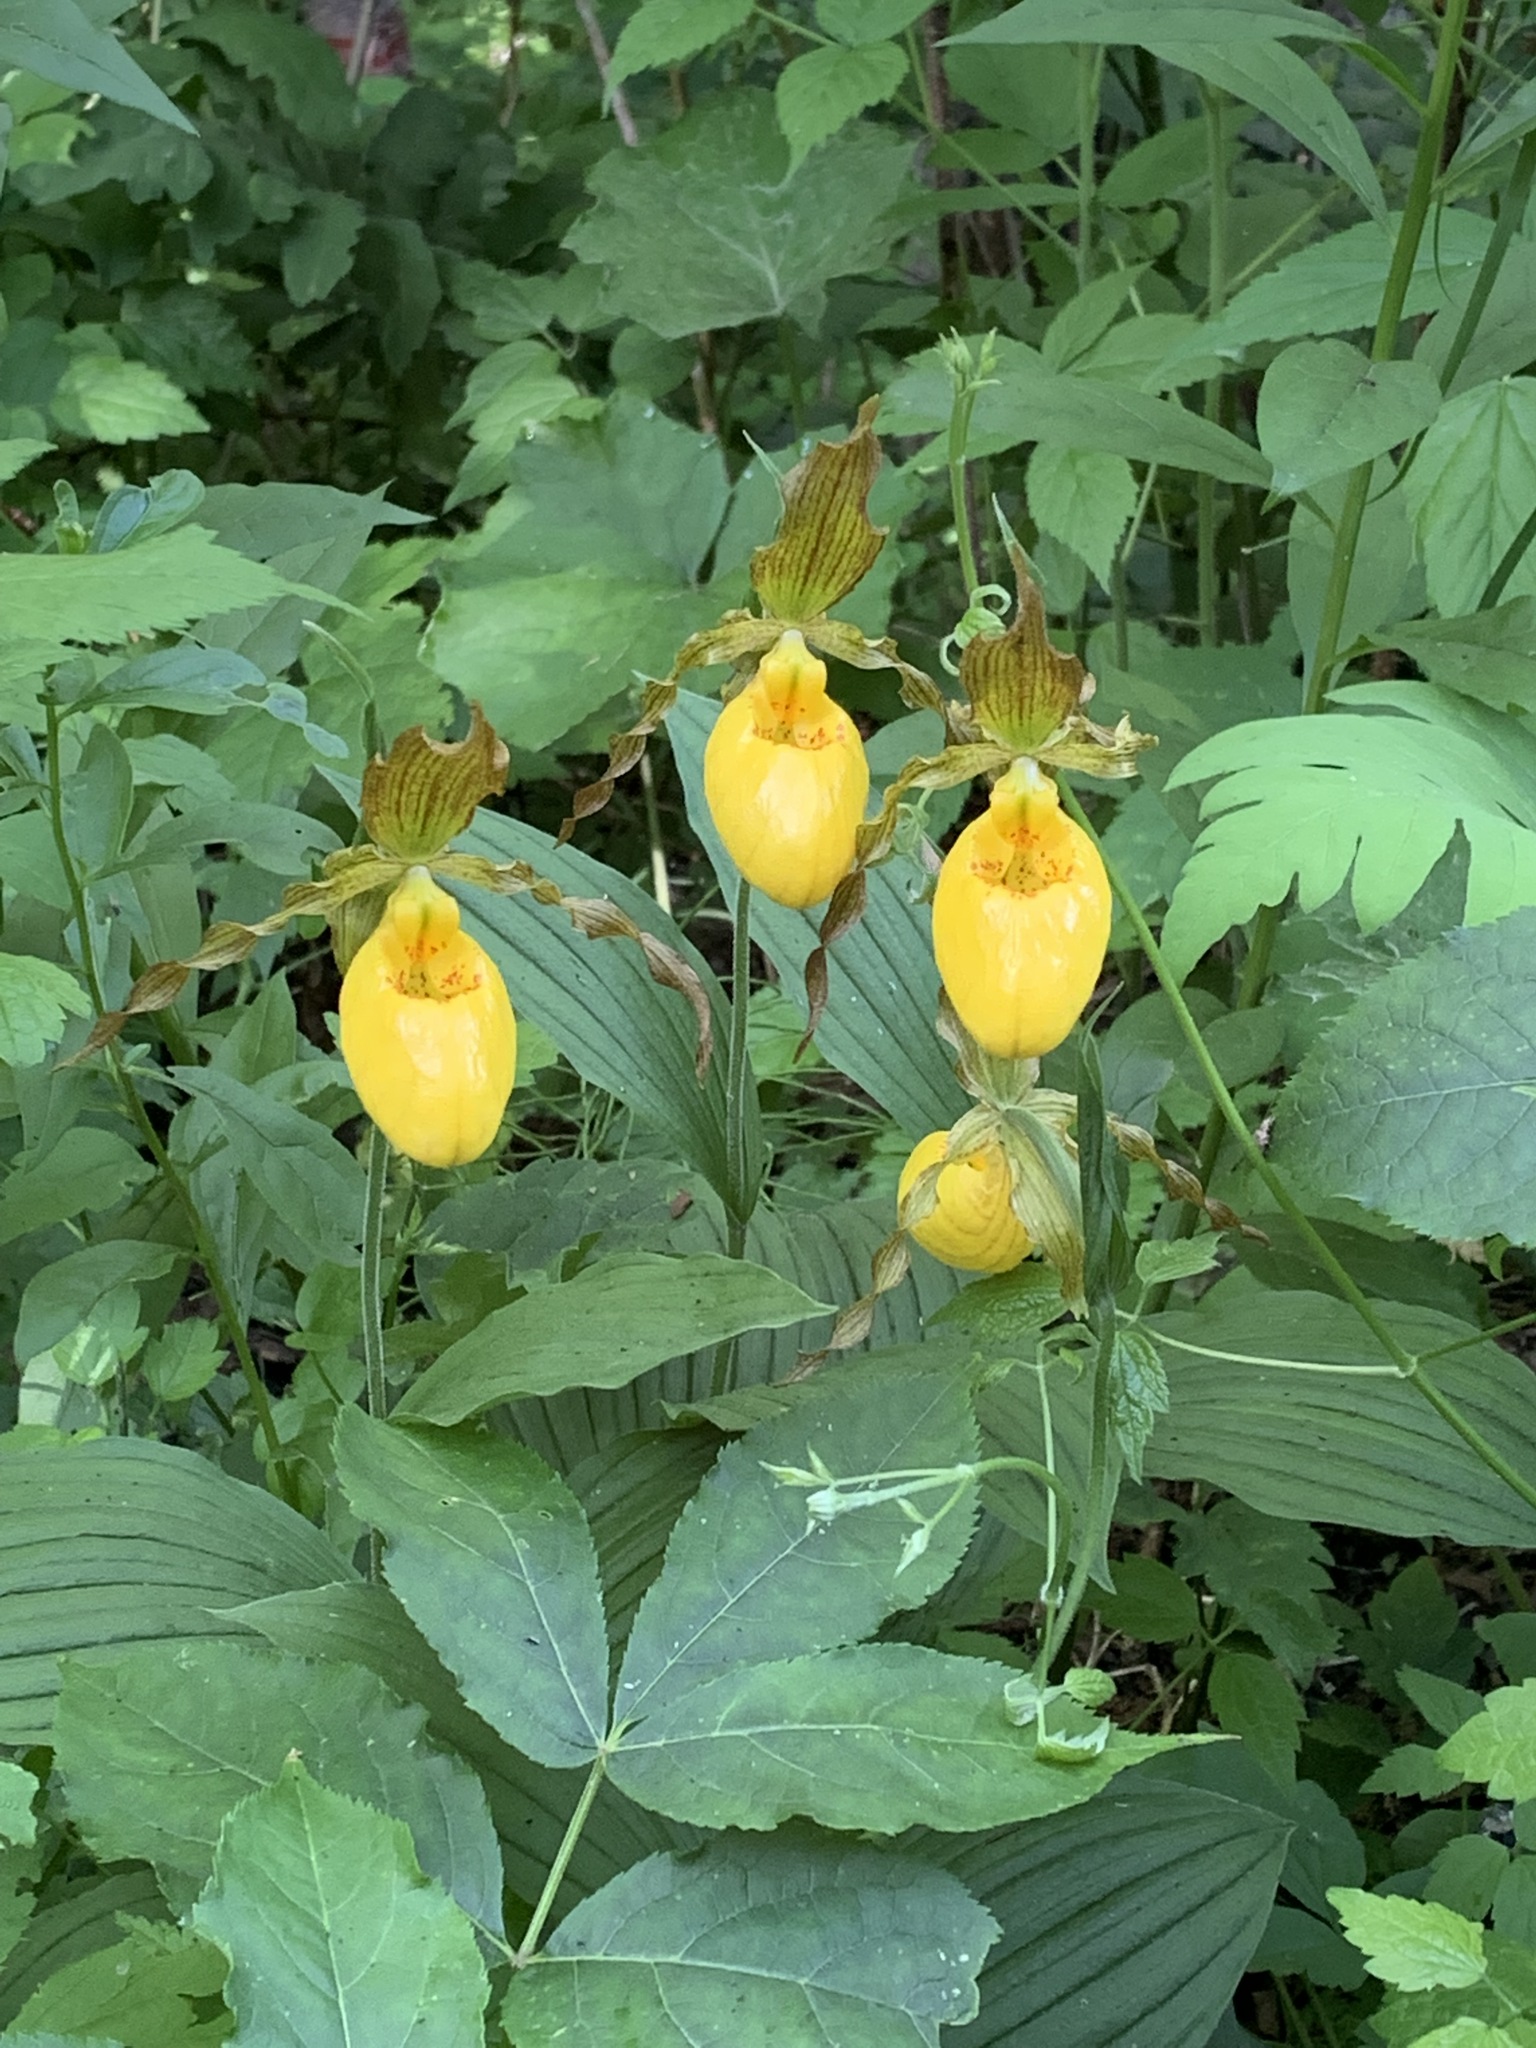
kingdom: Plantae
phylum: Tracheophyta
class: Liliopsida
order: Asparagales
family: Orchidaceae
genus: Cypripedium
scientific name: Cypripedium parviflorum
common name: American yellow lady's-slipper
